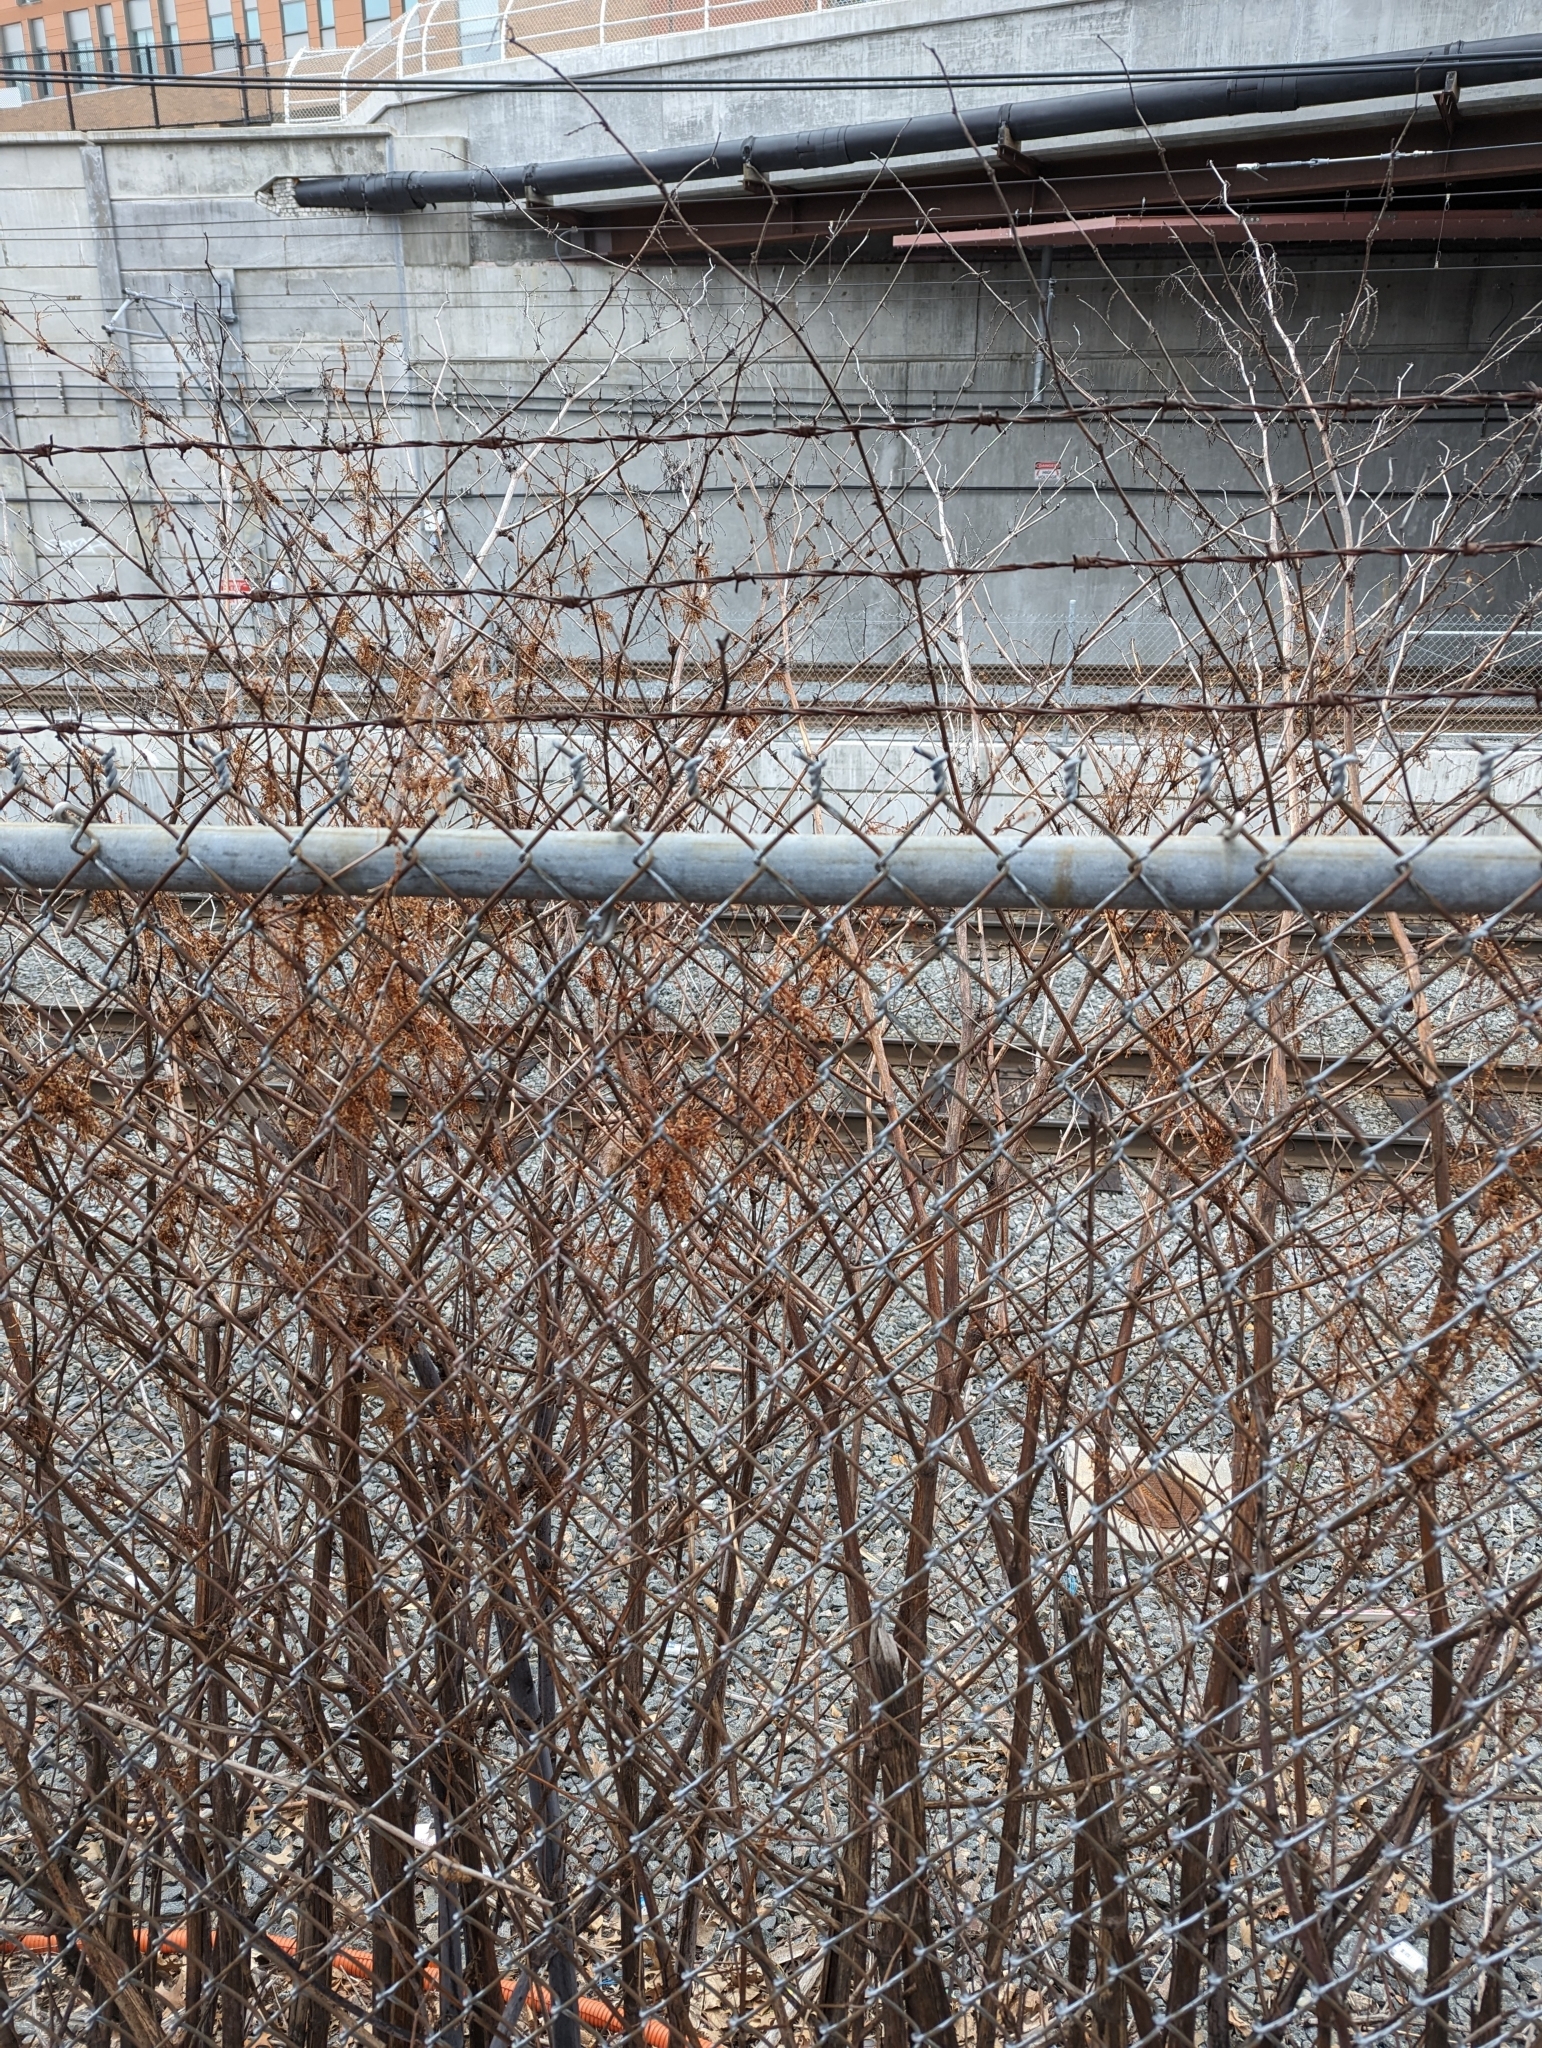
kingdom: Plantae
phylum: Tracheophyta
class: Magnoliopsida
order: Caryophyllales
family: Polygonaceae
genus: Reynoutria
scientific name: Reynoutria japonica
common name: Japanese knotweed
